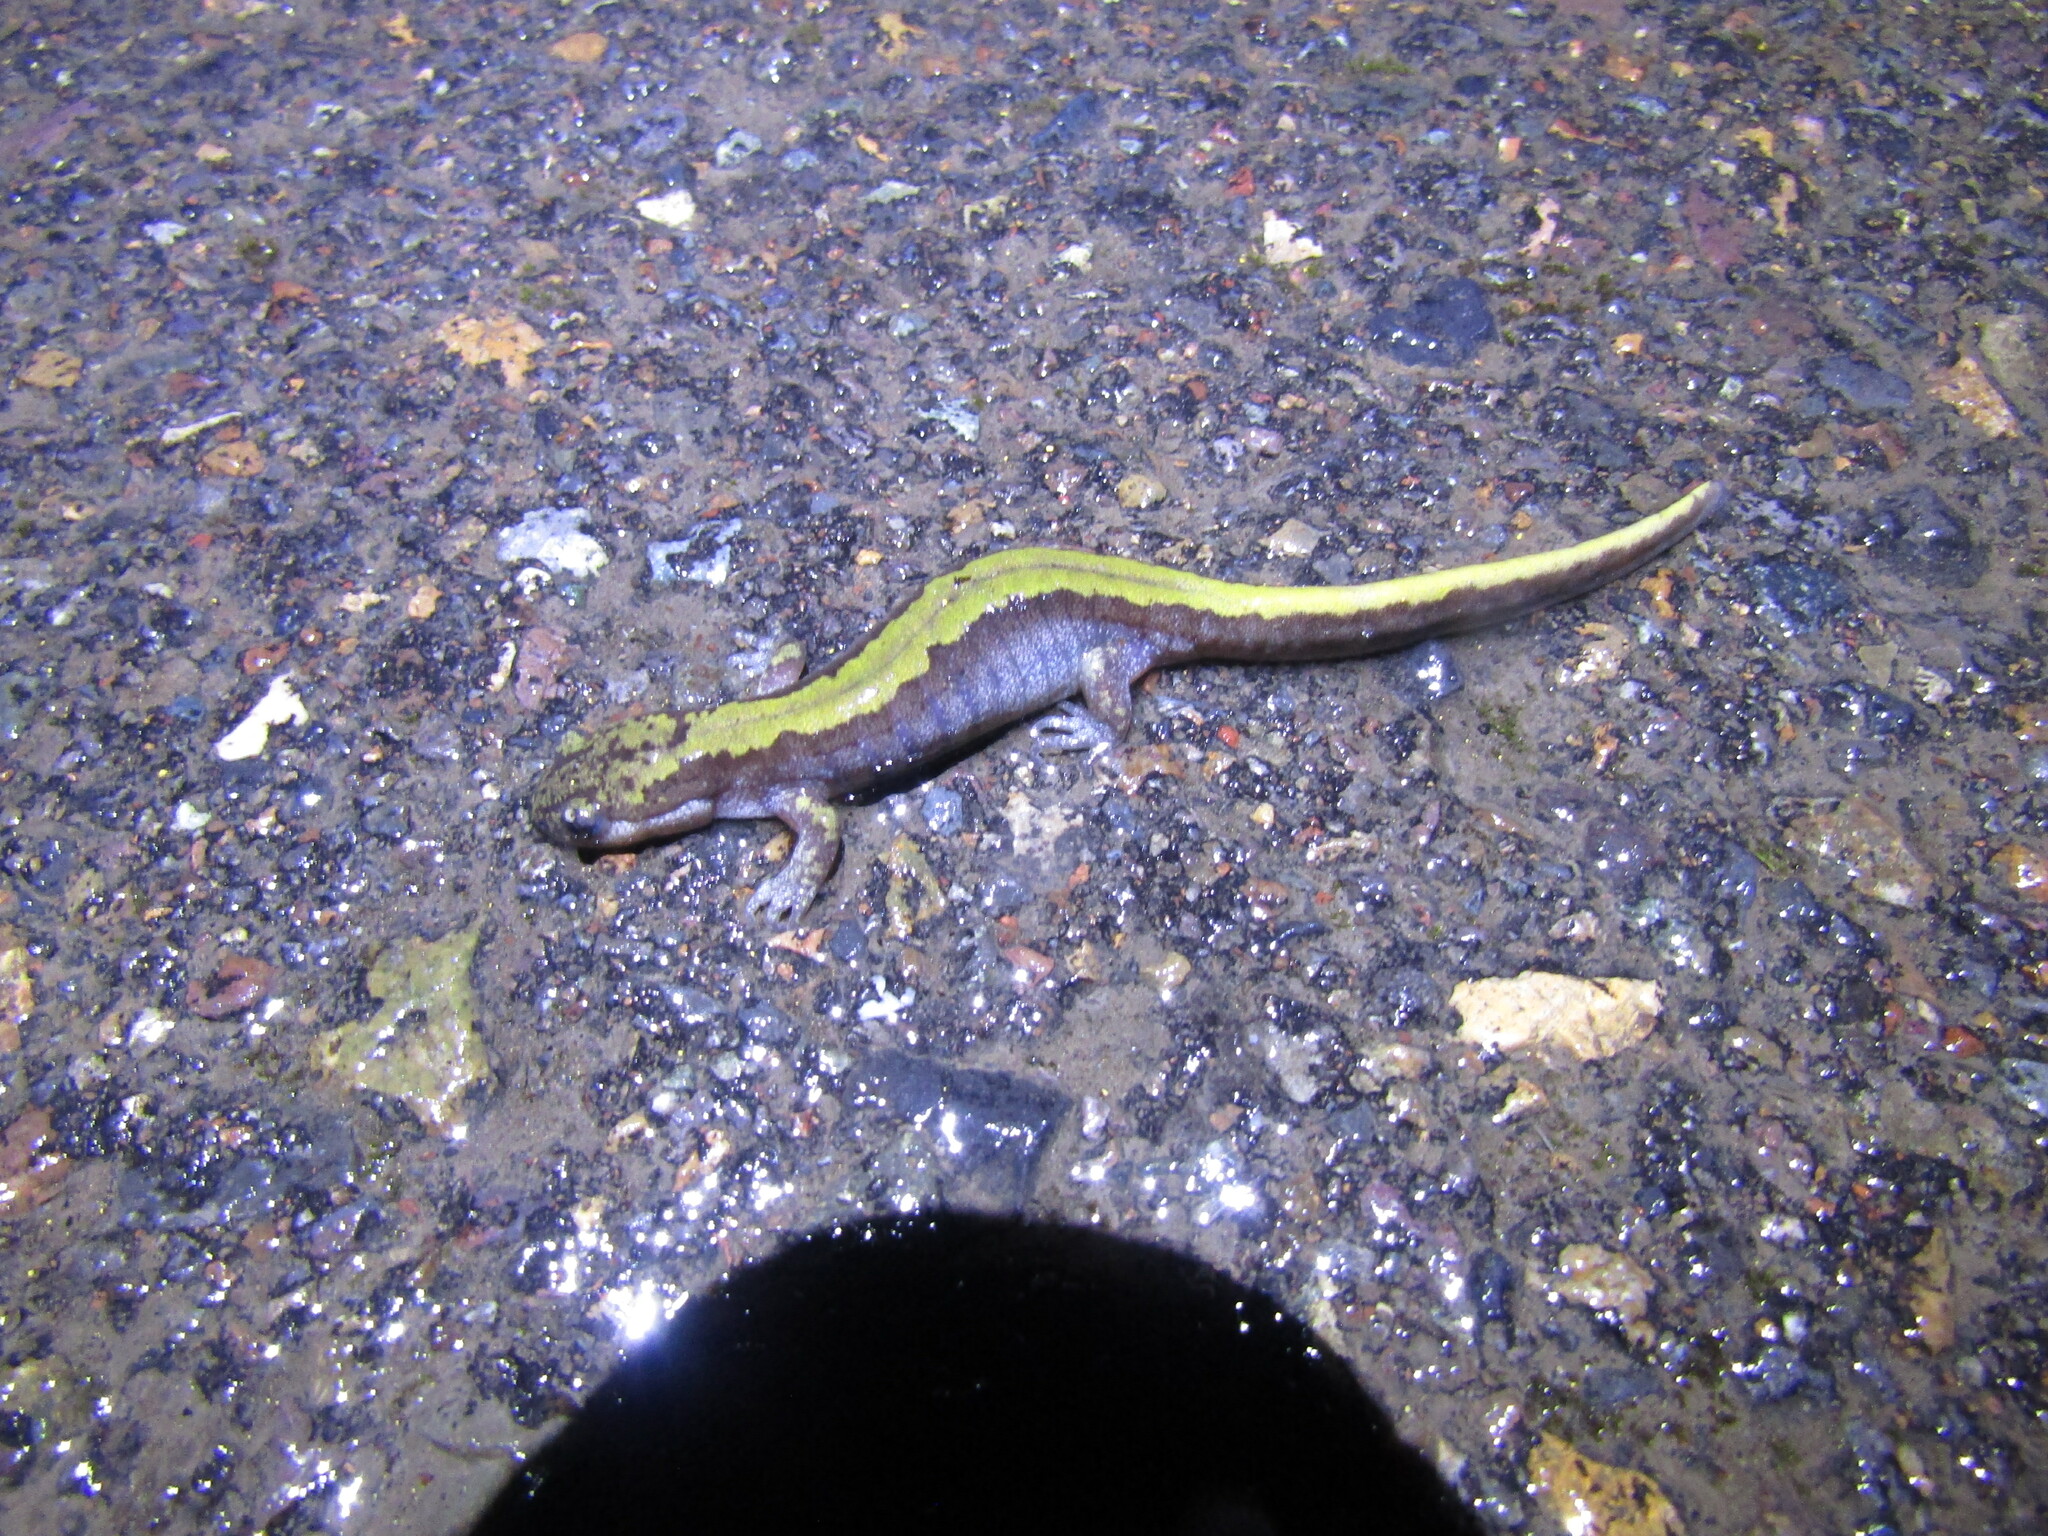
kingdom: Animalia
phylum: Chordata
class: Amphibia
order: Caudata
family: Ambystomatidae
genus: Ambystoma
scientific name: Ambystoma macrodactylum
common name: Long-toed salamander
